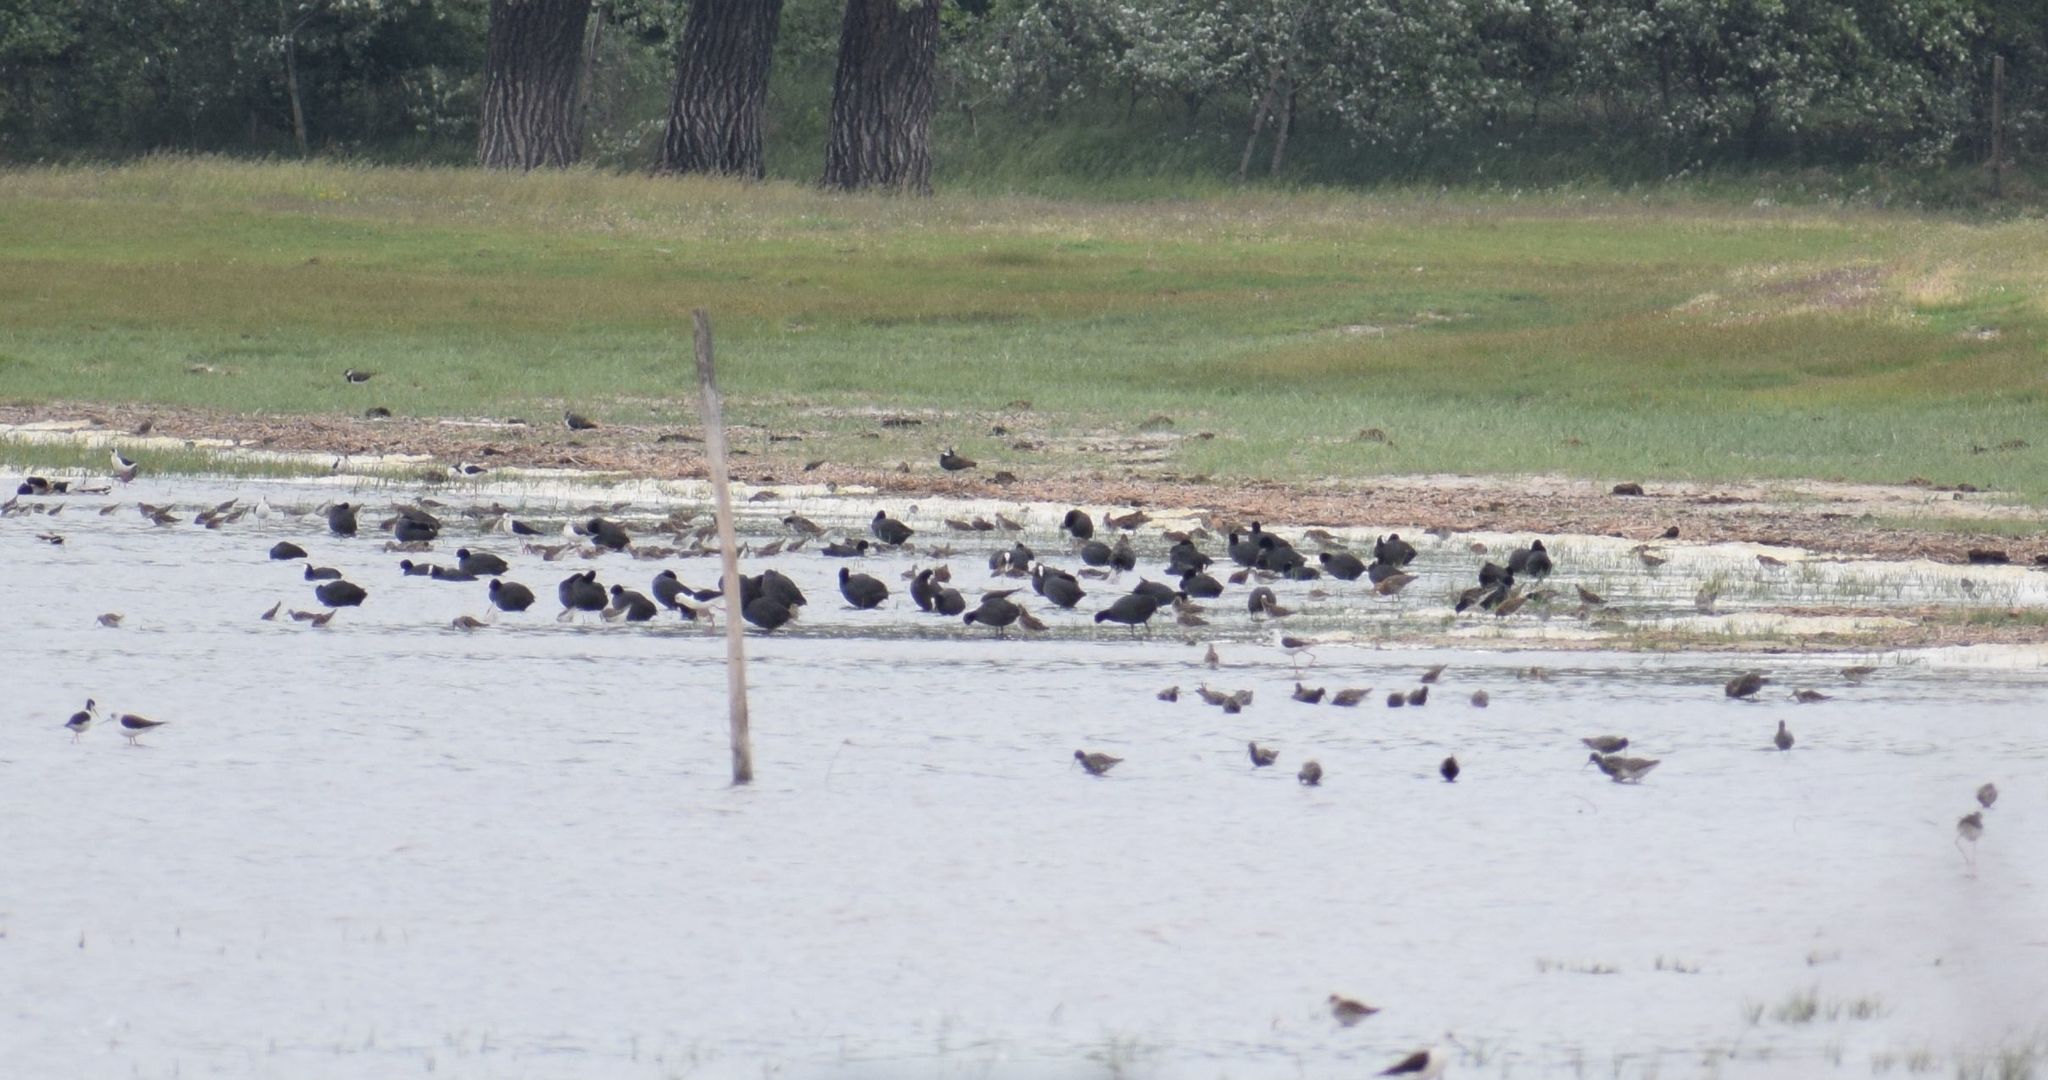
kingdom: Animalia
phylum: Chordata
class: Aves
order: Gruiformes
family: Rallidae
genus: Fulica
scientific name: Fulica atra
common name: Eurasian coot
